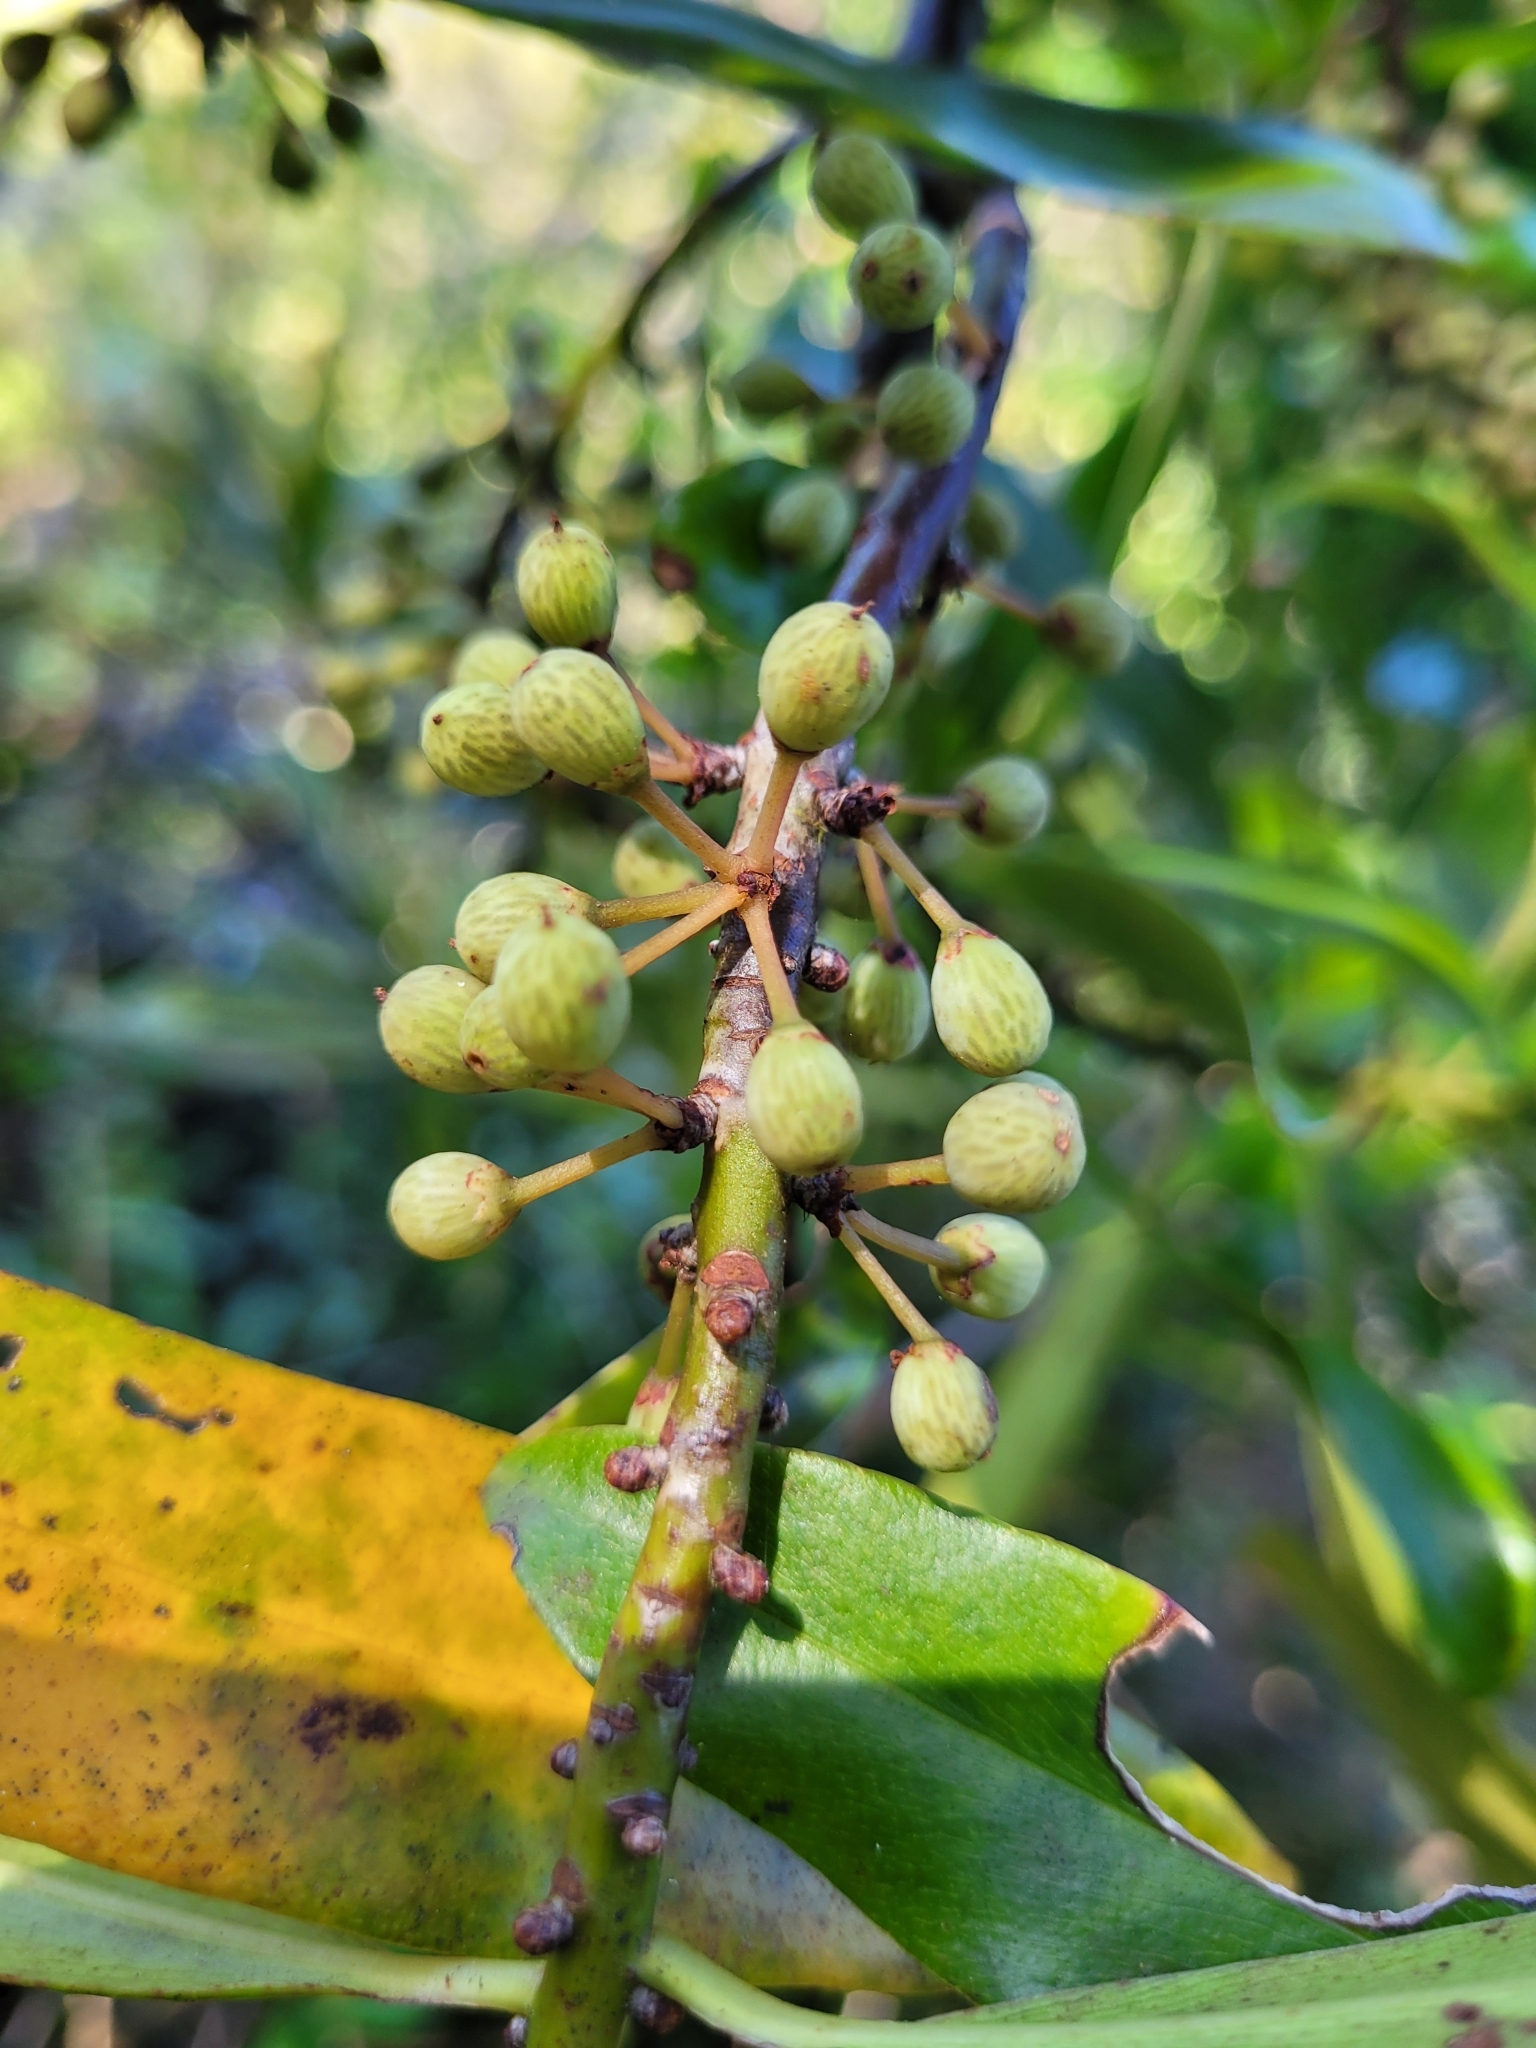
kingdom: Plantae
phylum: Tracheophyta
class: Magnoliopsida
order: Ericales
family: Primulaceae
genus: Myrsine
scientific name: Myrsine salicina
